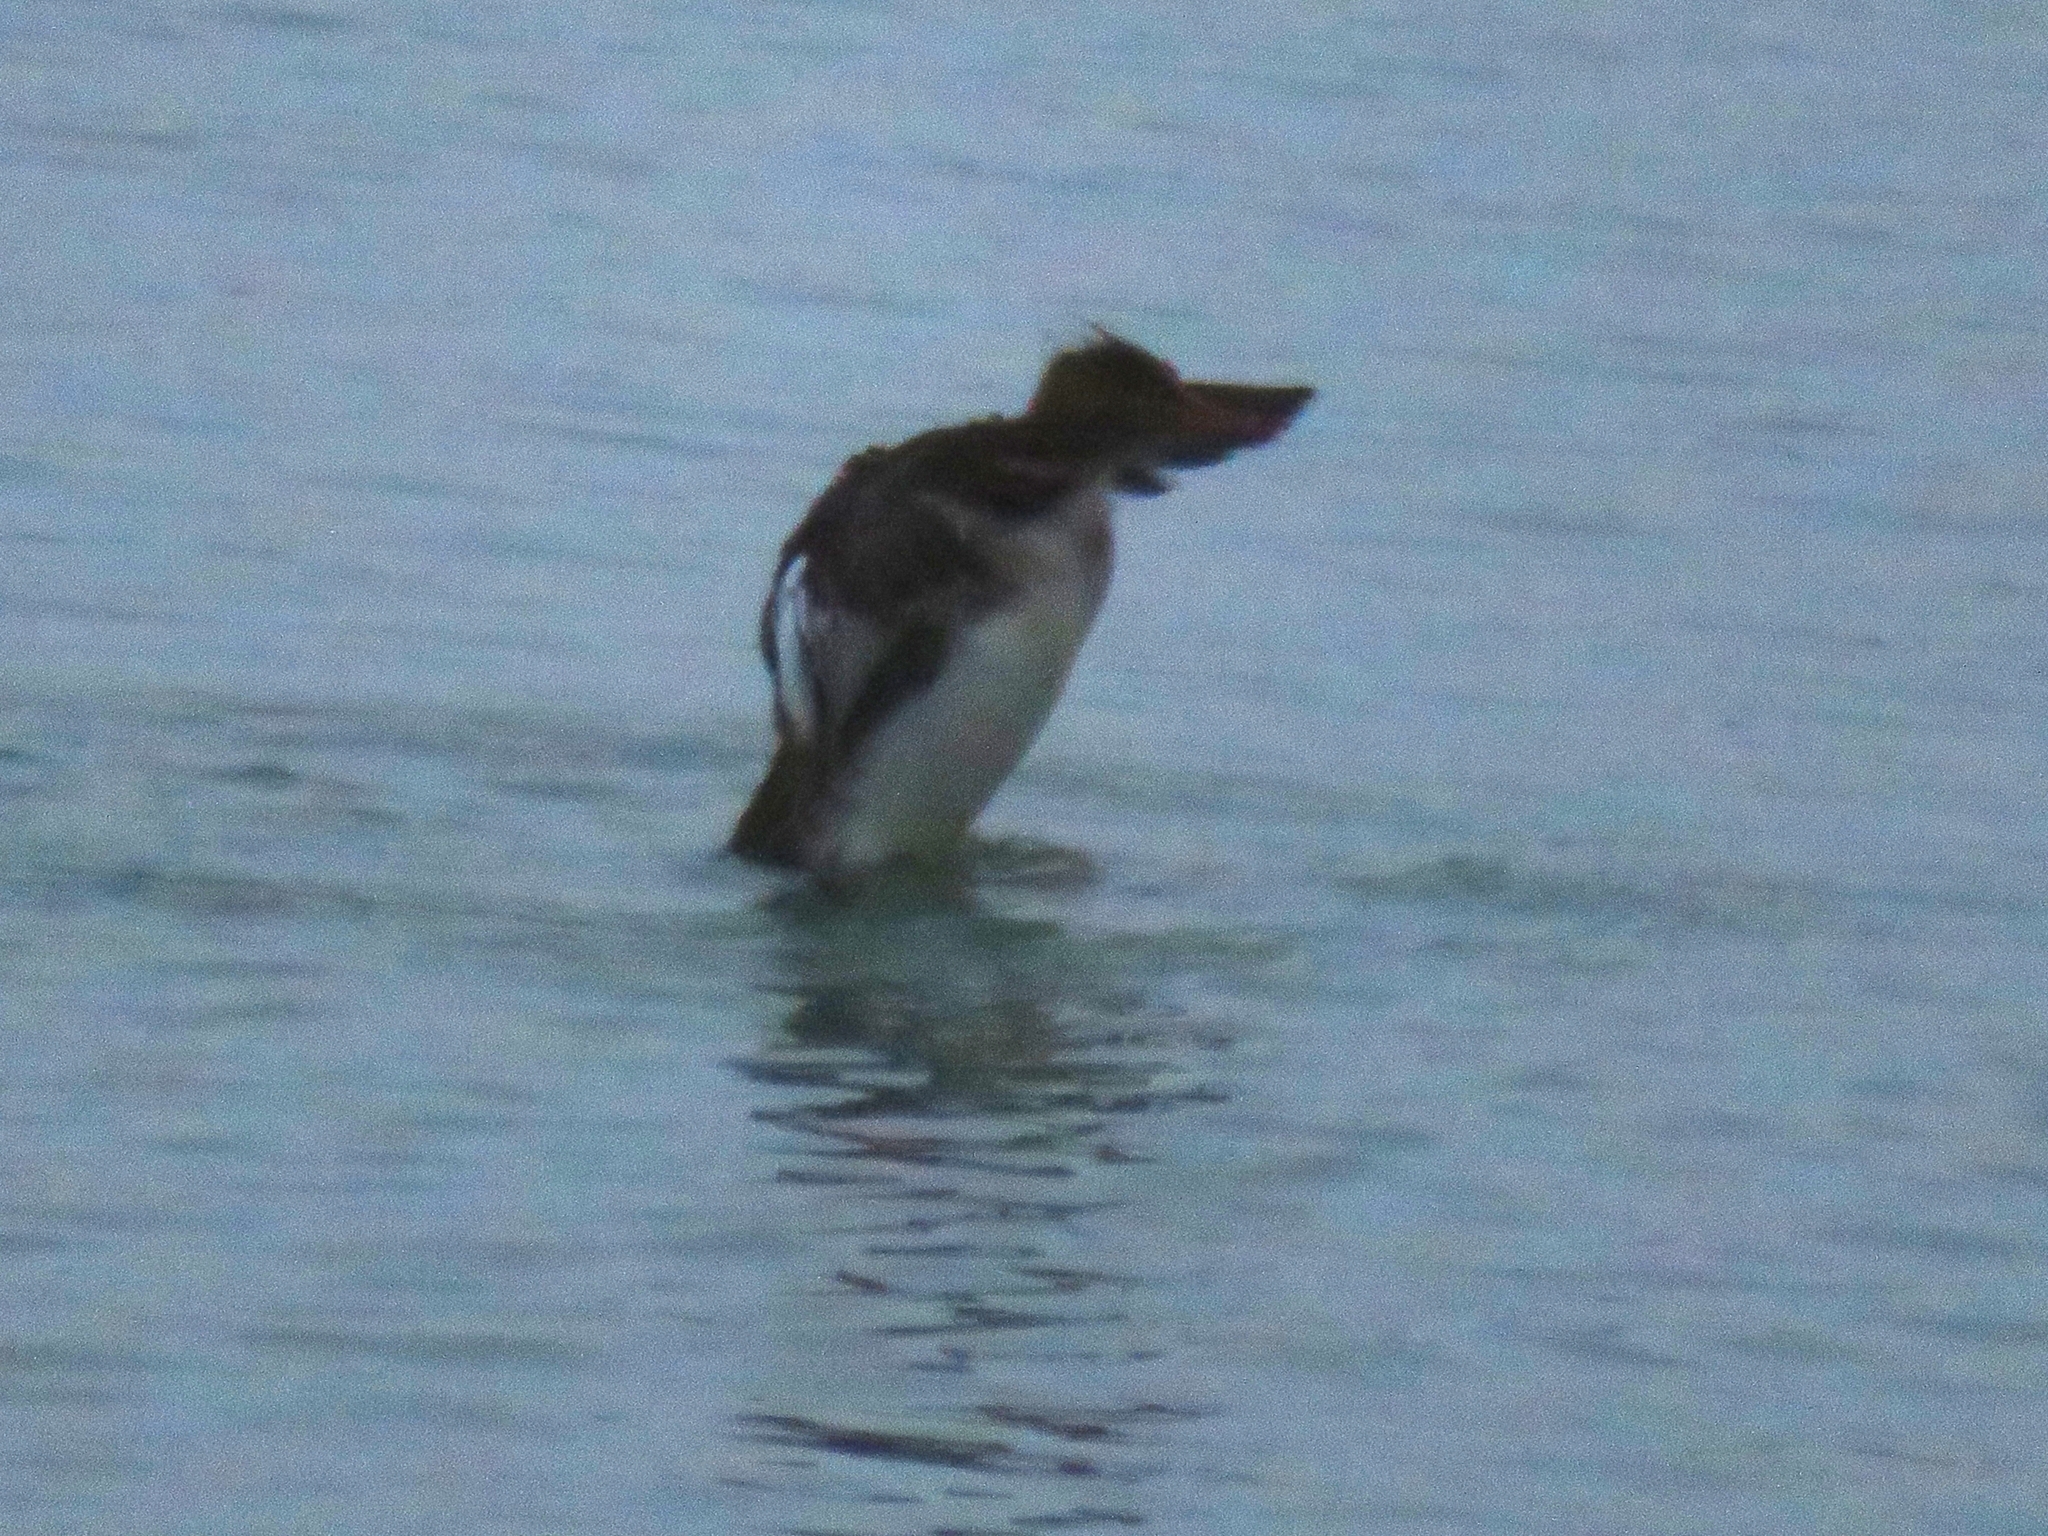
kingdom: Animalia
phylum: Chordata
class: Aves
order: Anseriformes
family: Anatidae
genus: Mergus
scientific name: Mergus serrator
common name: Red-breasted merganser
